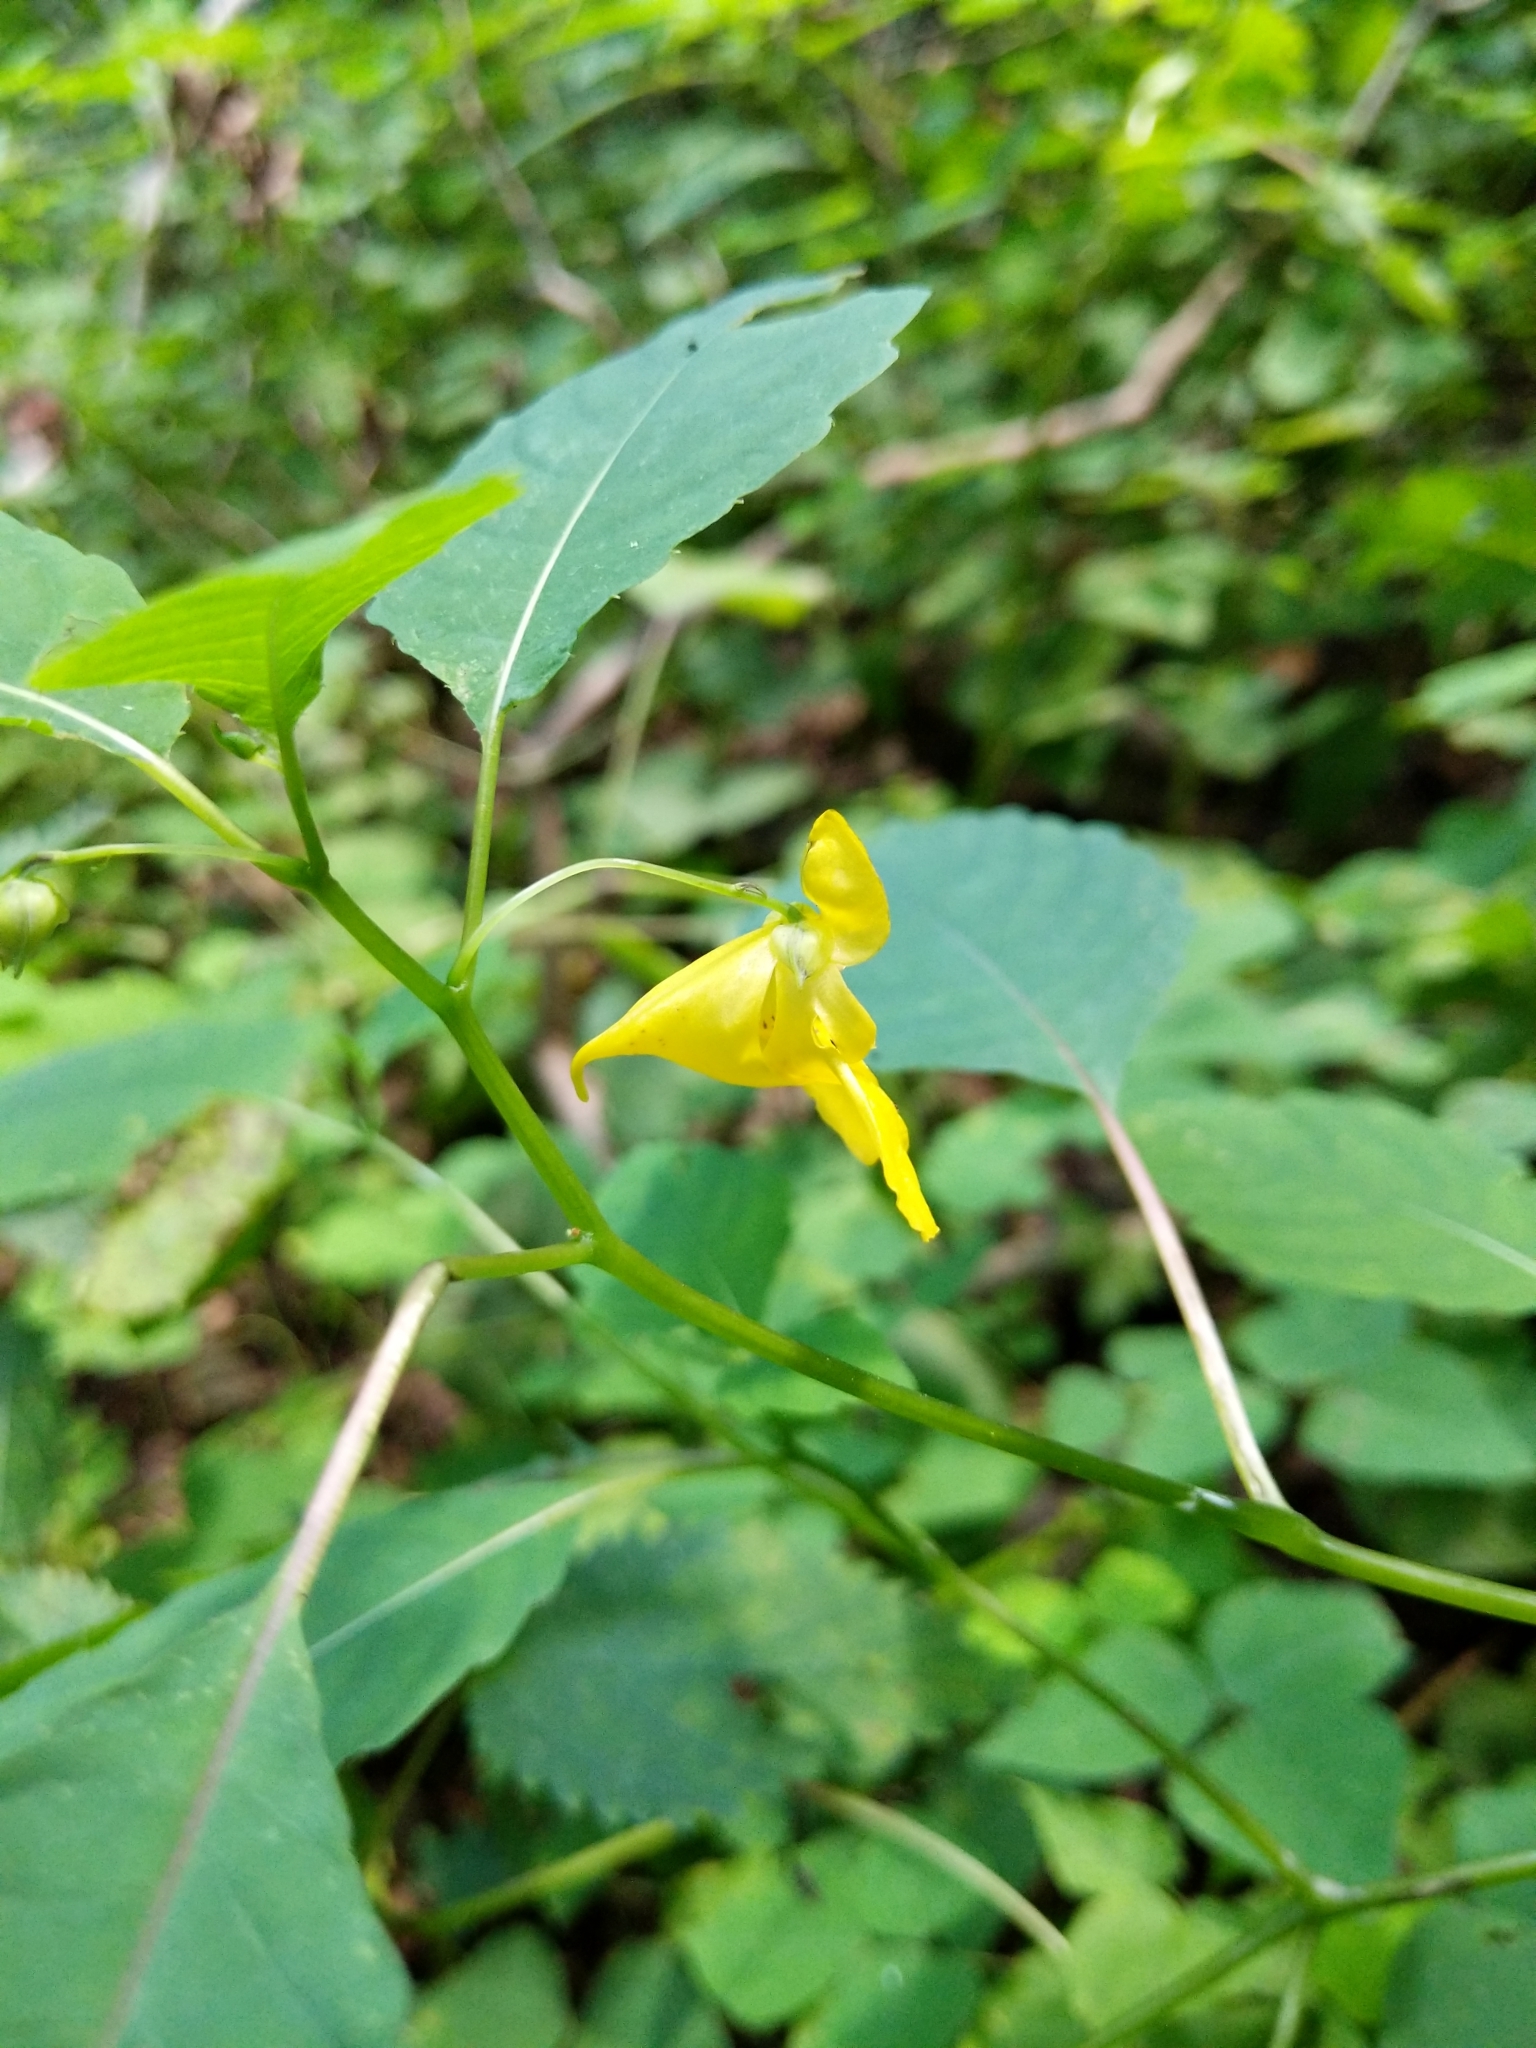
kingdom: Plantae
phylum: Tracheophyta
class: Magnoliopsida
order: Ericales
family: Balsaminaceae
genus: Impatiens
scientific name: Impatiens pallida
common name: Pale snapweed
